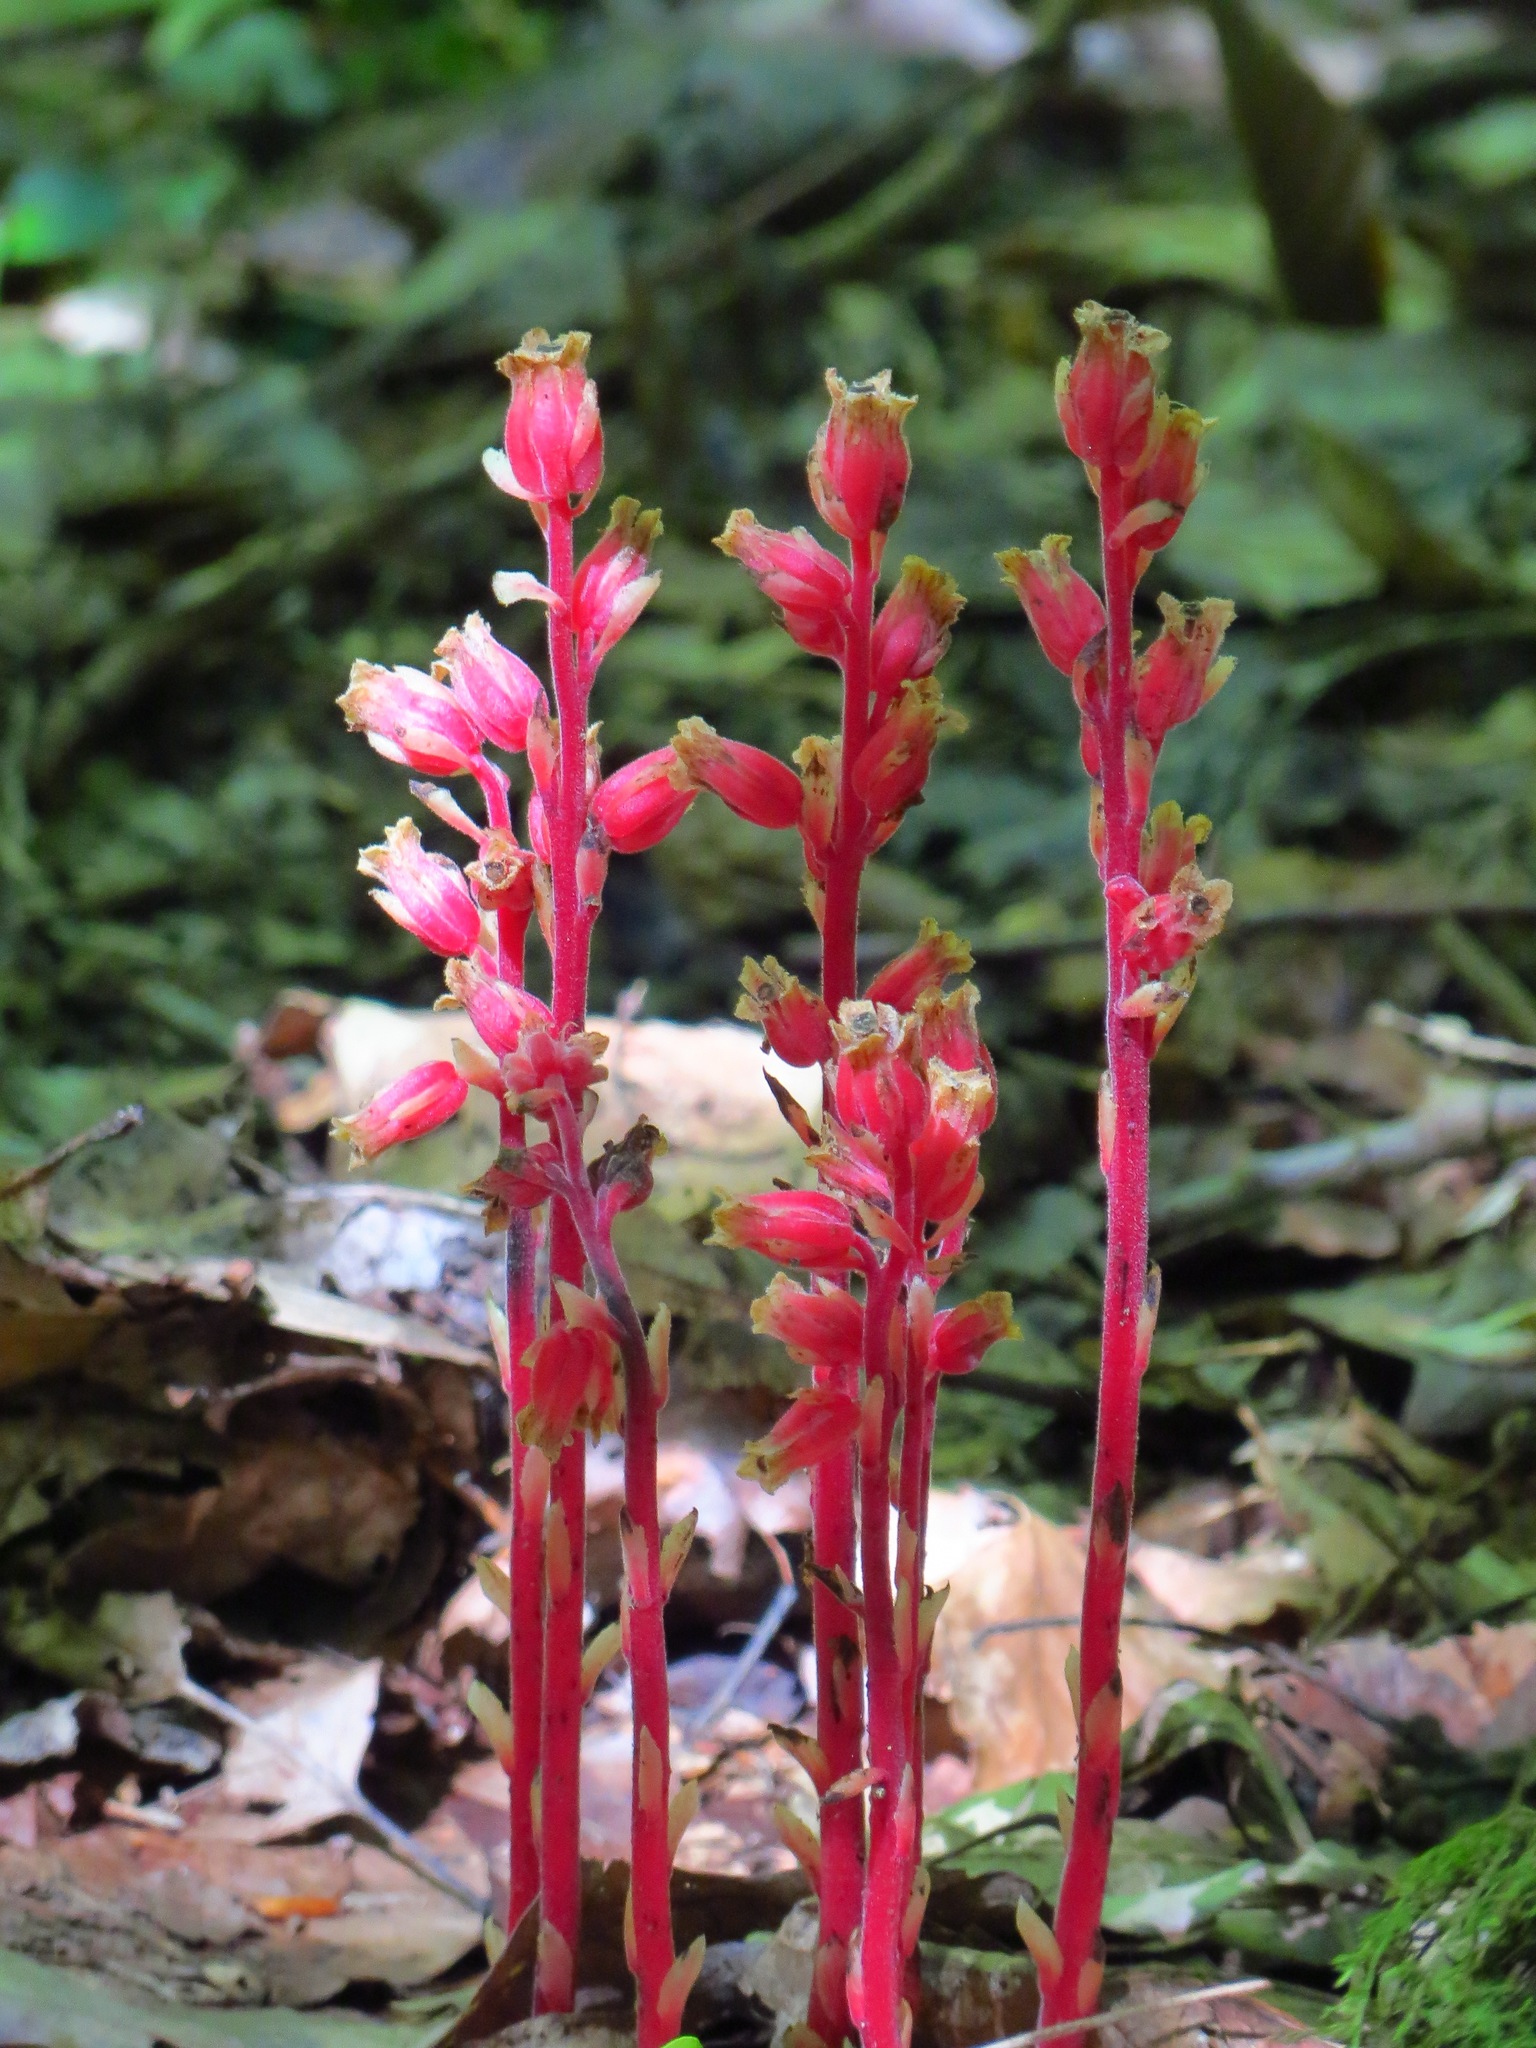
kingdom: Plantae
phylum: Tracheophyta
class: Magnoliopsida
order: Ericales
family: Ericaceae
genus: Hypopitys
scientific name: Hypopitys monotropa
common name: Yellow bird's-nest
